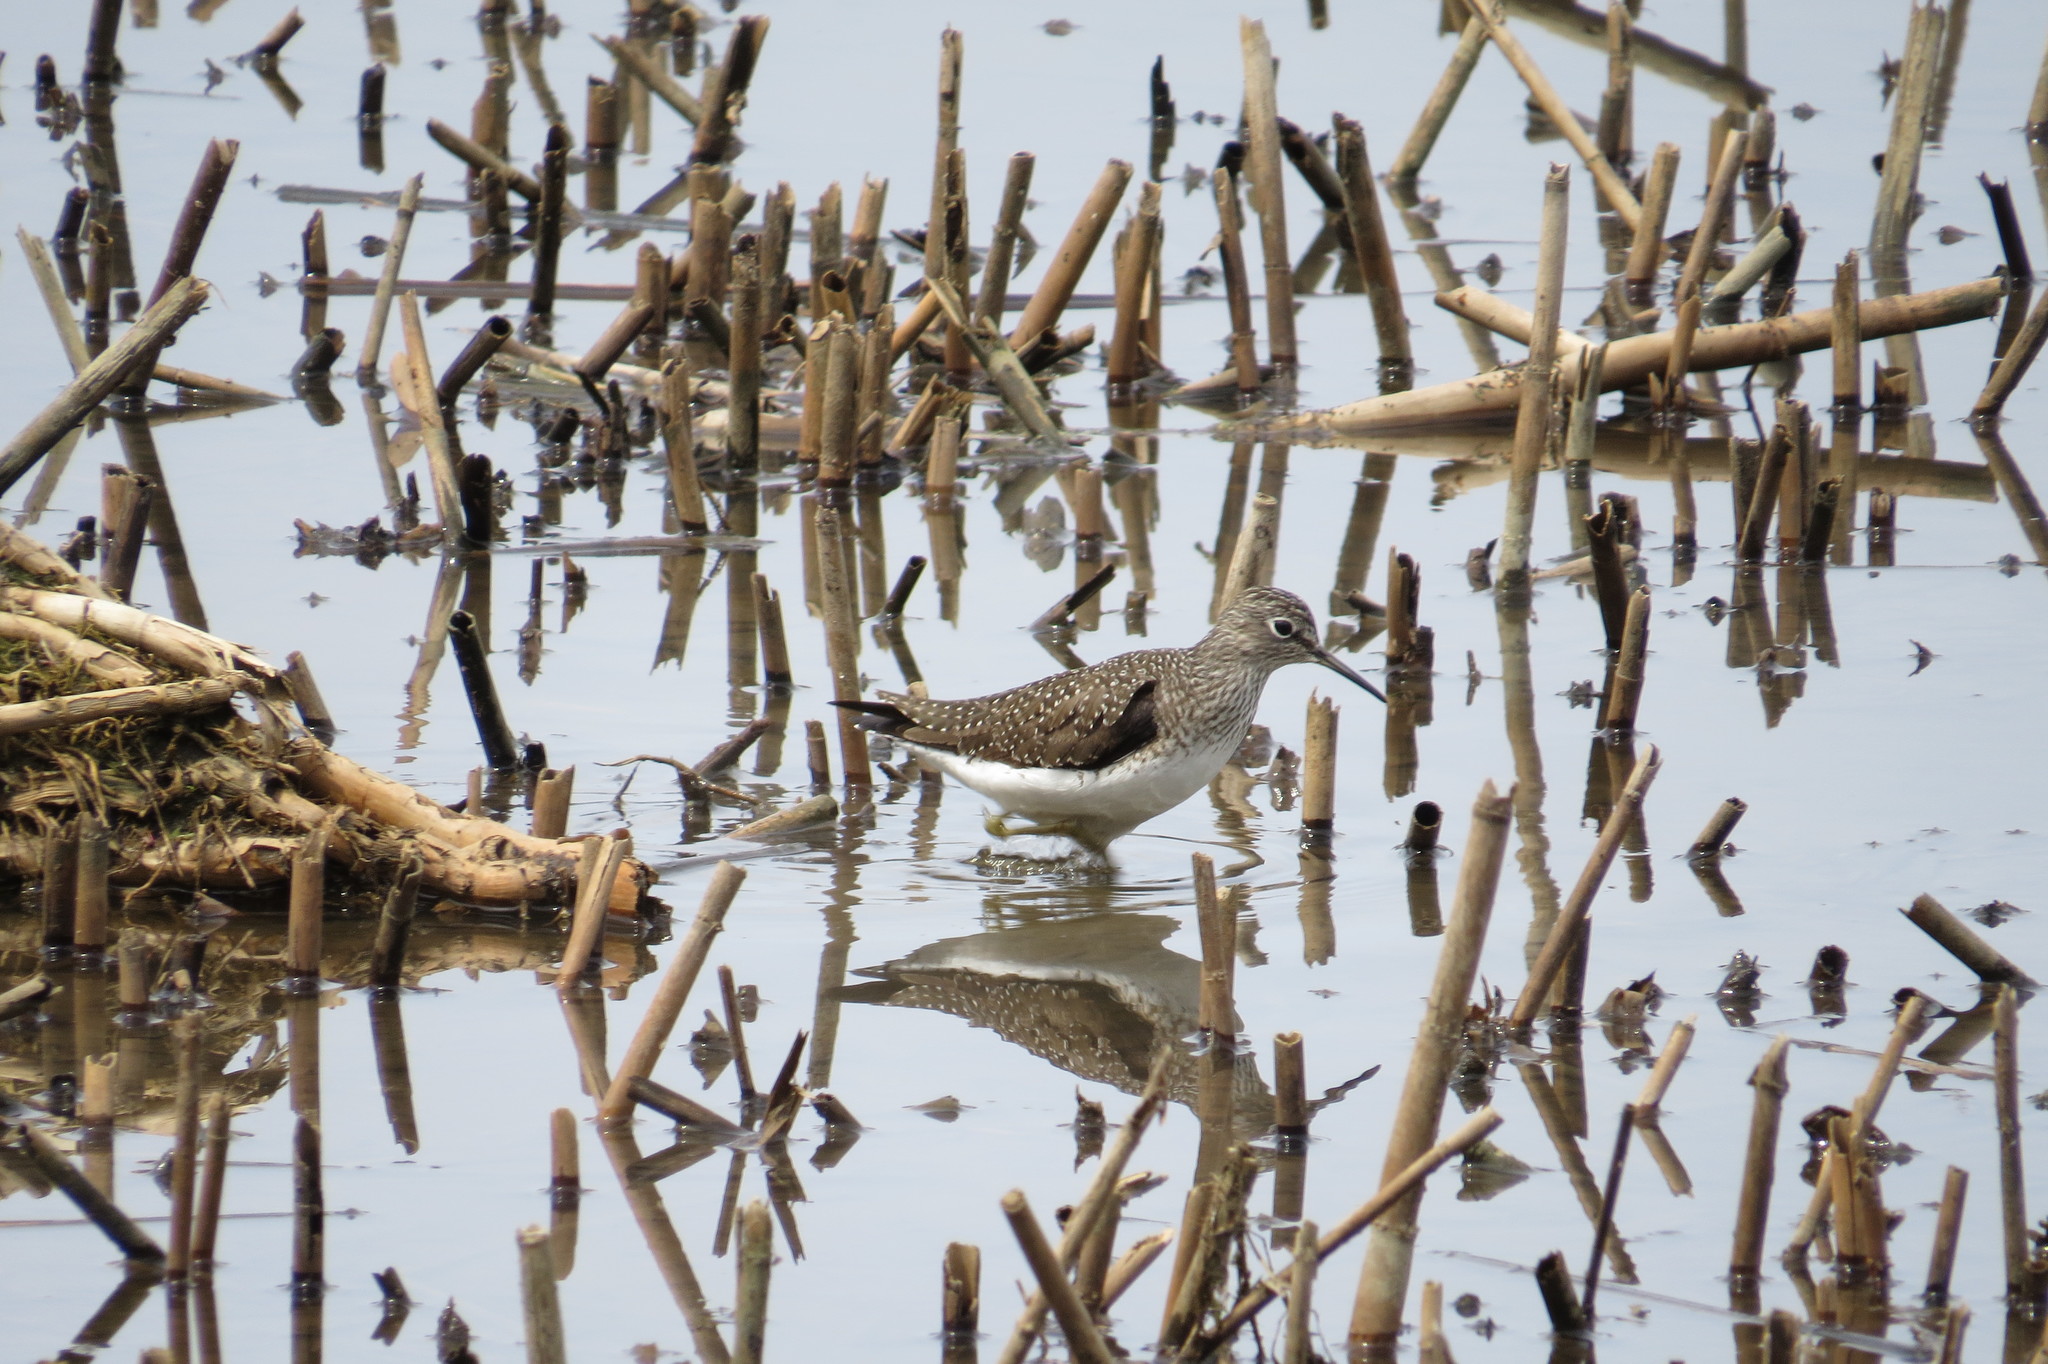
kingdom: Animalia
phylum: Chordata
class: Aves
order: Charadriiformes
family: Scolopacidae
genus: Tringa
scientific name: Tringa solitaria
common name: Solitary sandpiper
